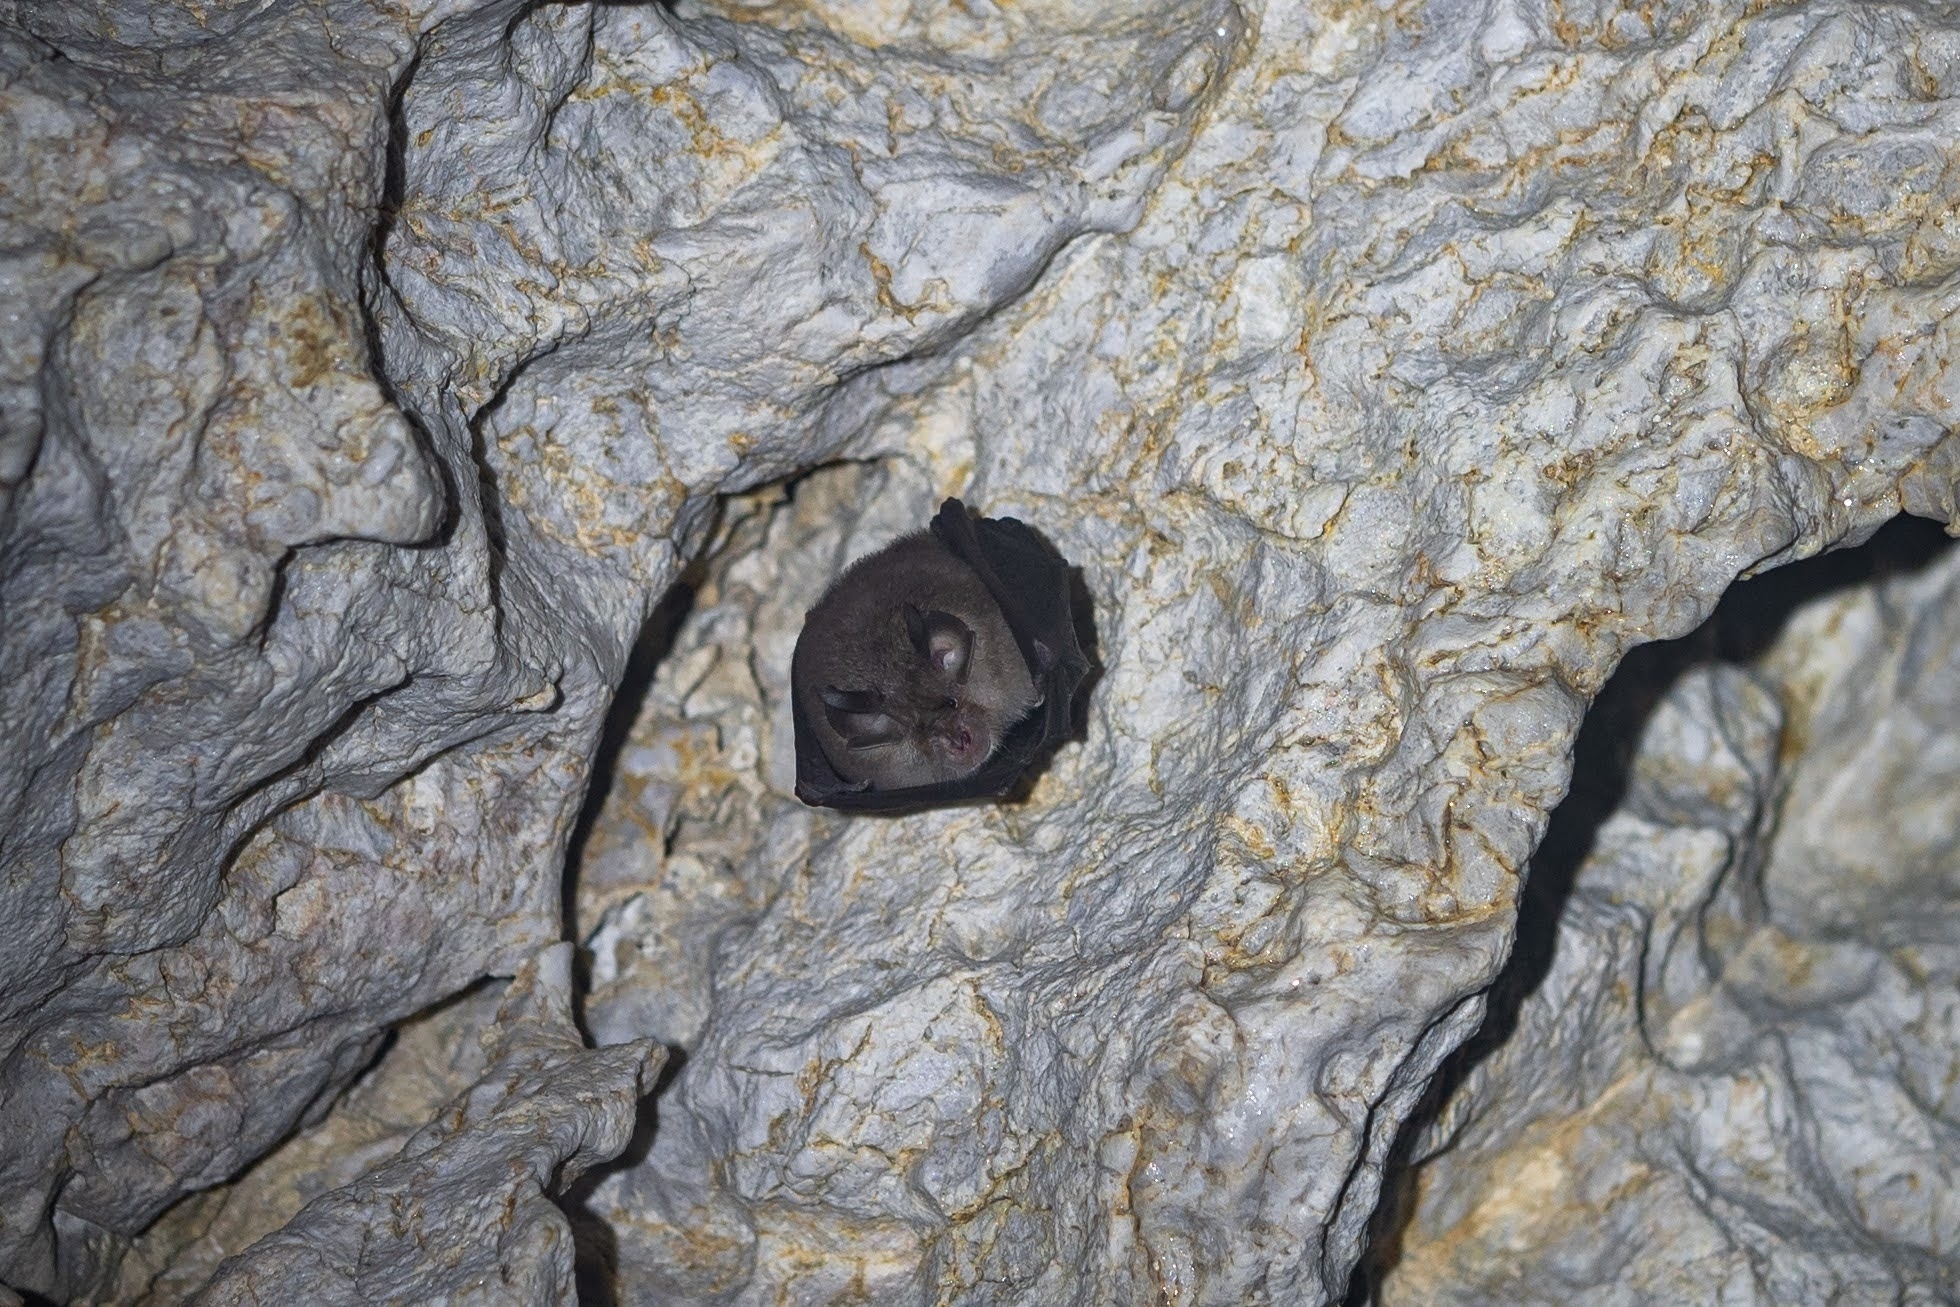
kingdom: Animalia
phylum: Chordata
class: Mammalia
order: Chiroptera
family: Rhinolophidae
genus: Rhinolophus
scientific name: Rhinolophus hipposideros
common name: Lesser horseshoe bat
